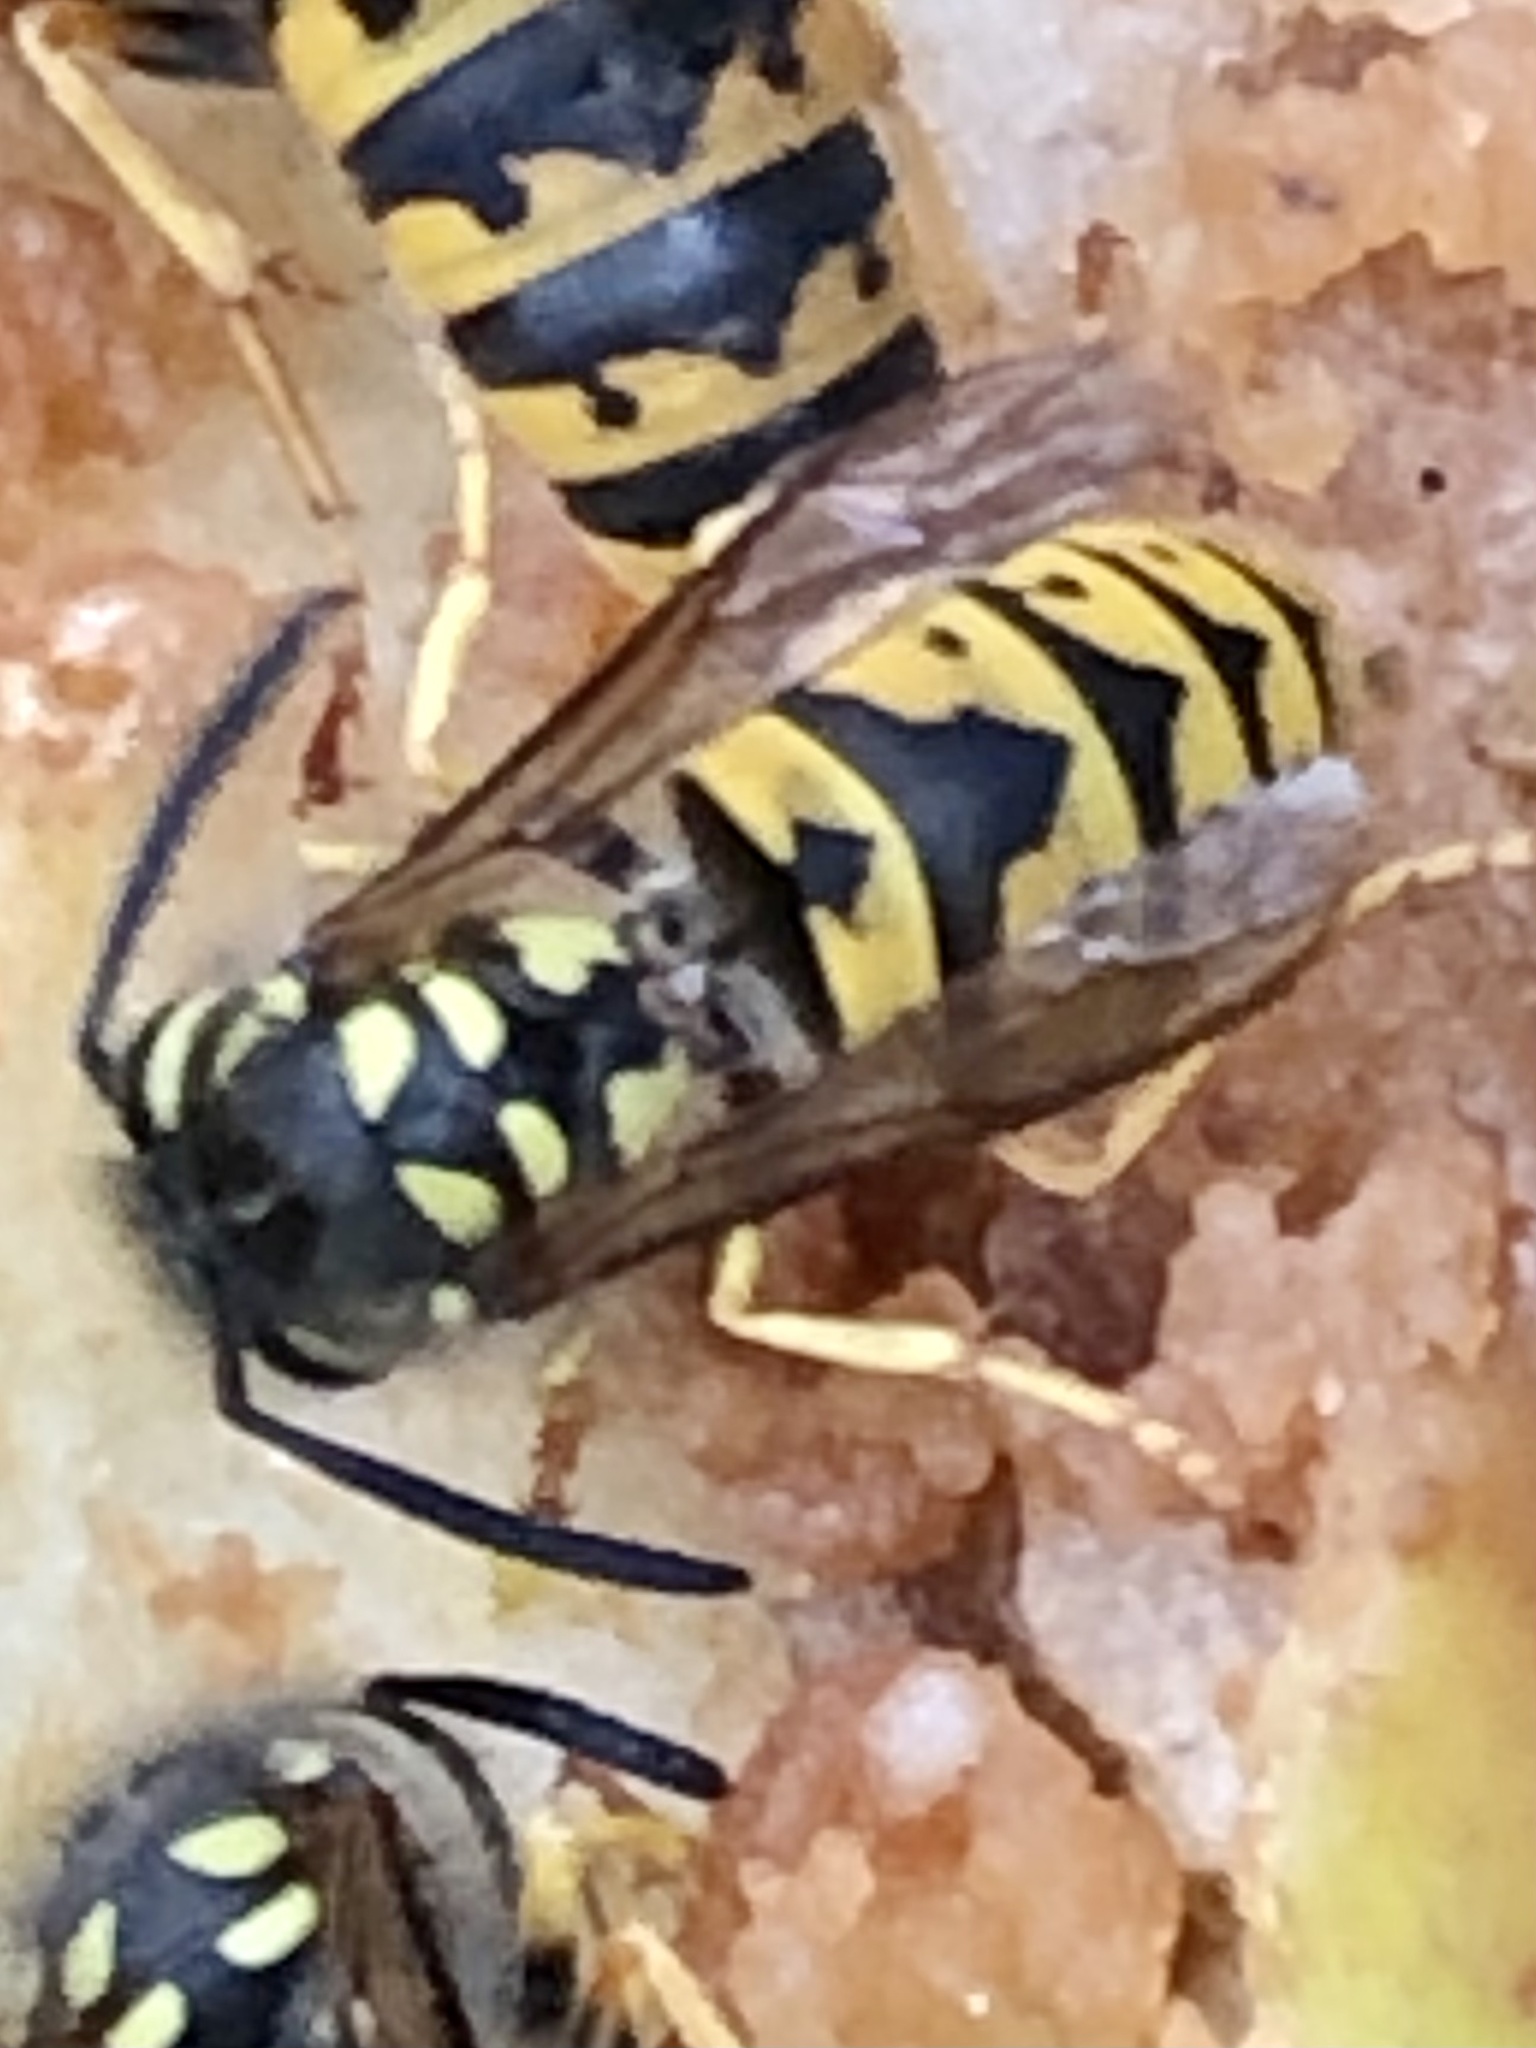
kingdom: Animalia
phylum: Arthropoda
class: Insecta
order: Hymenoptera
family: Vespidae
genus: Vespula
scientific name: Vespula germanica
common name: German wasp
